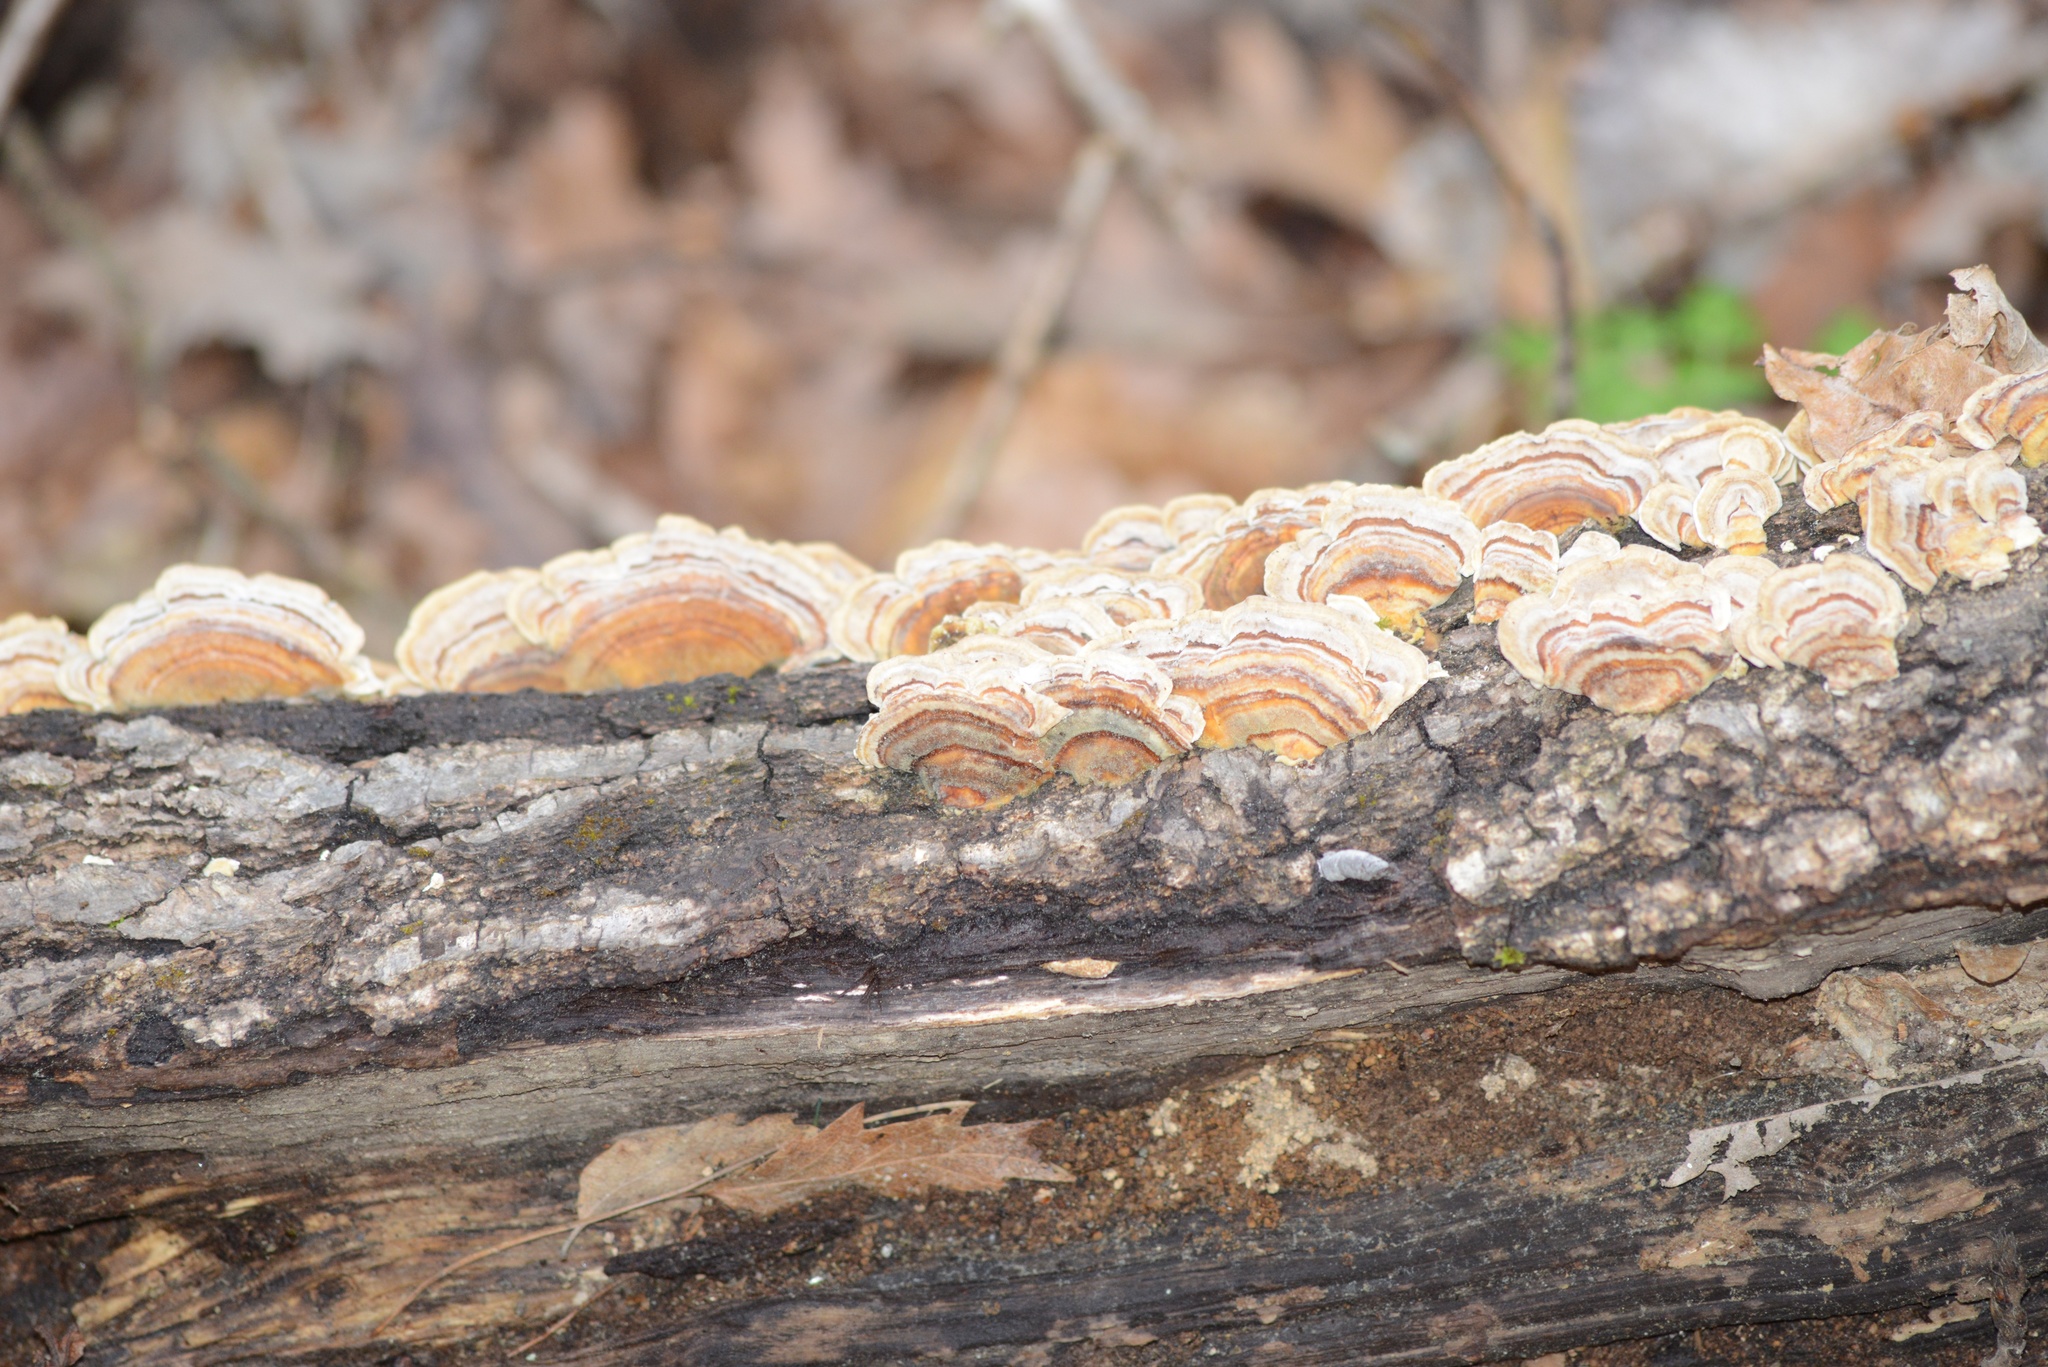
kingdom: Fungi
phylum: Basidiomycota
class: Agaricomycetes
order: Polyporales
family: Polyporaceae
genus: Trametes
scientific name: Trametes versicolor
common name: Turkeytail
